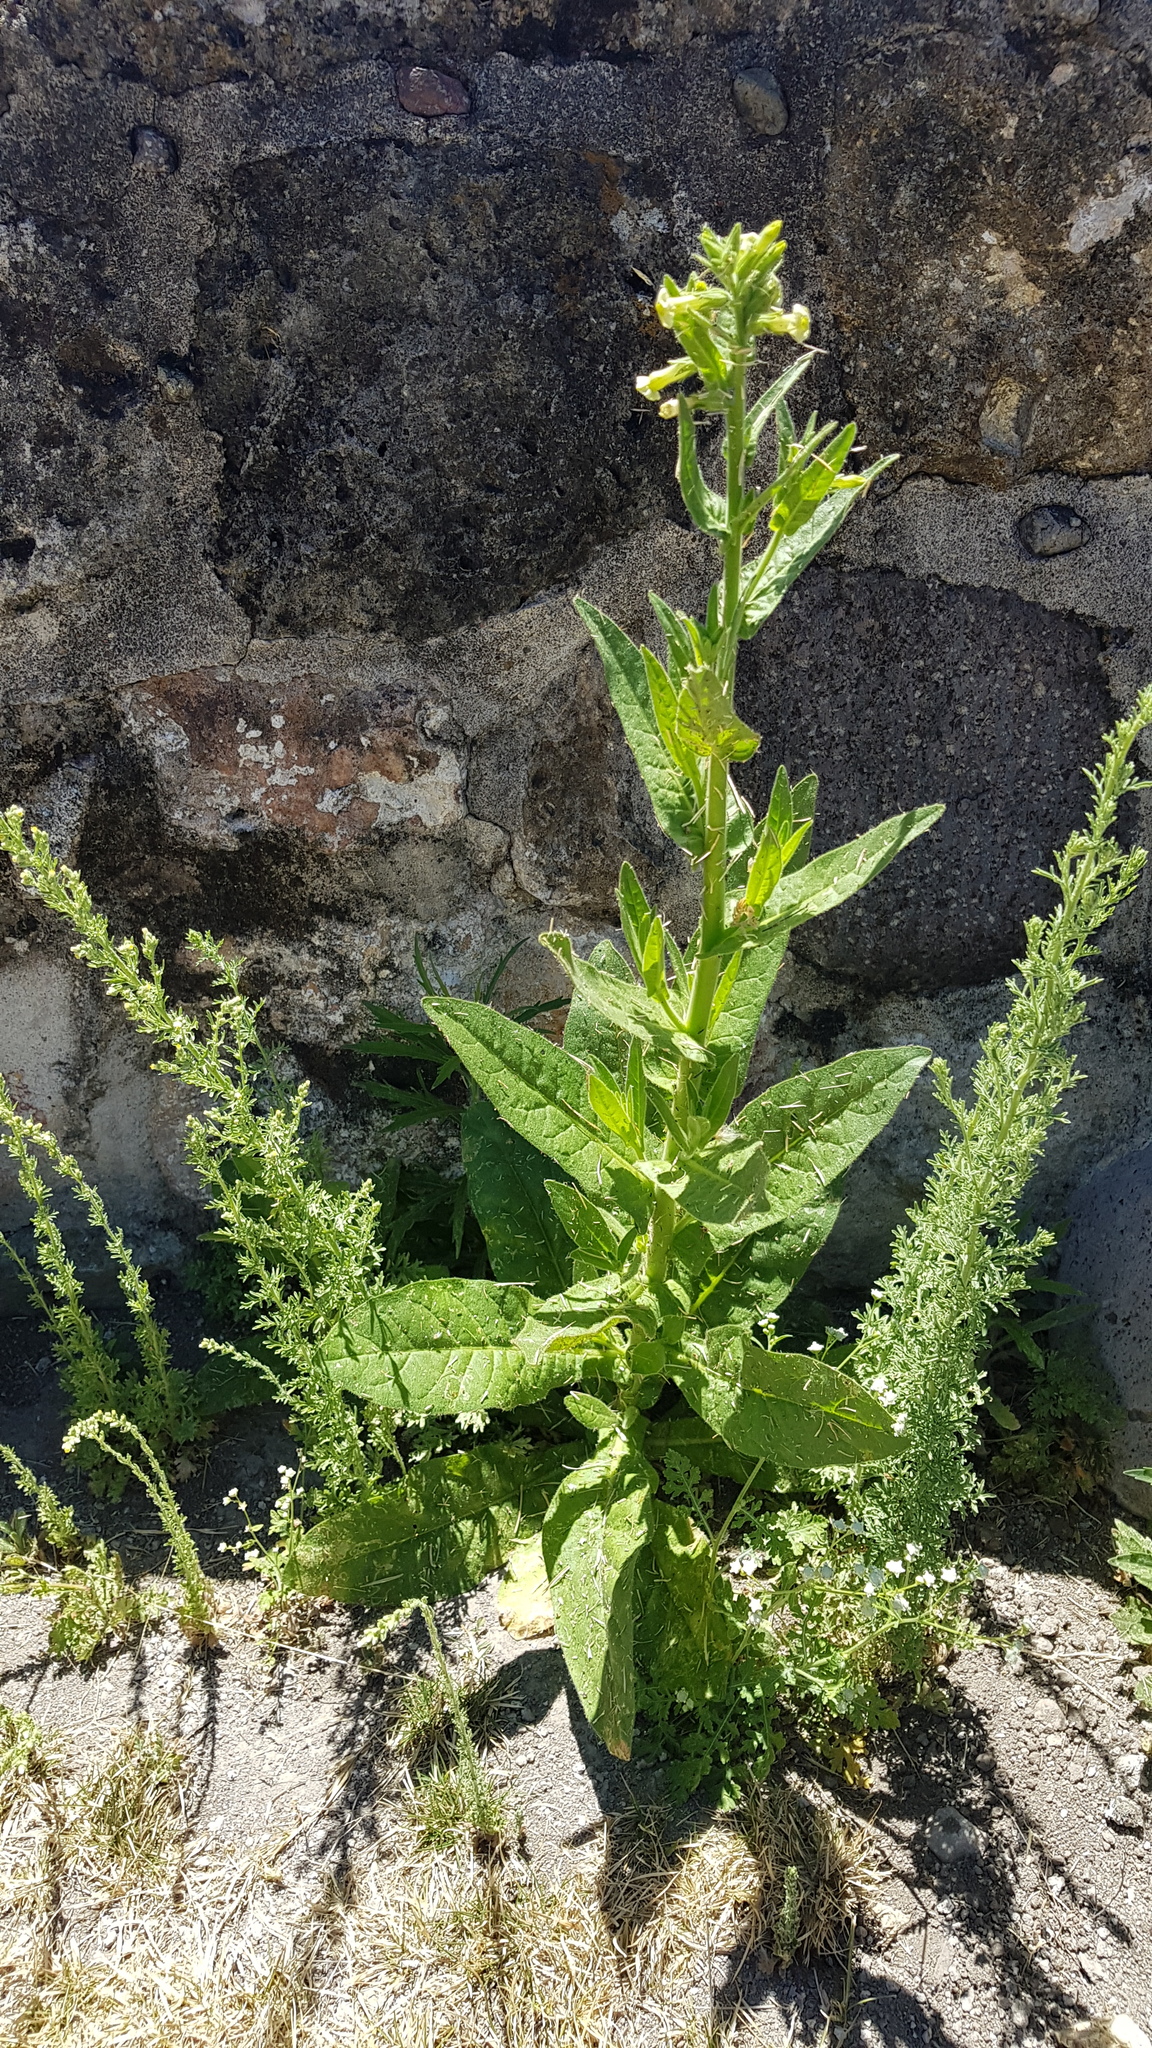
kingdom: Plantae
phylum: Tracheophyta
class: Magnoliopsida
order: Solanales
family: Solanaceae
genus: Nicotiana
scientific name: Nicotiana obtusifolia
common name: Desert tobacco
